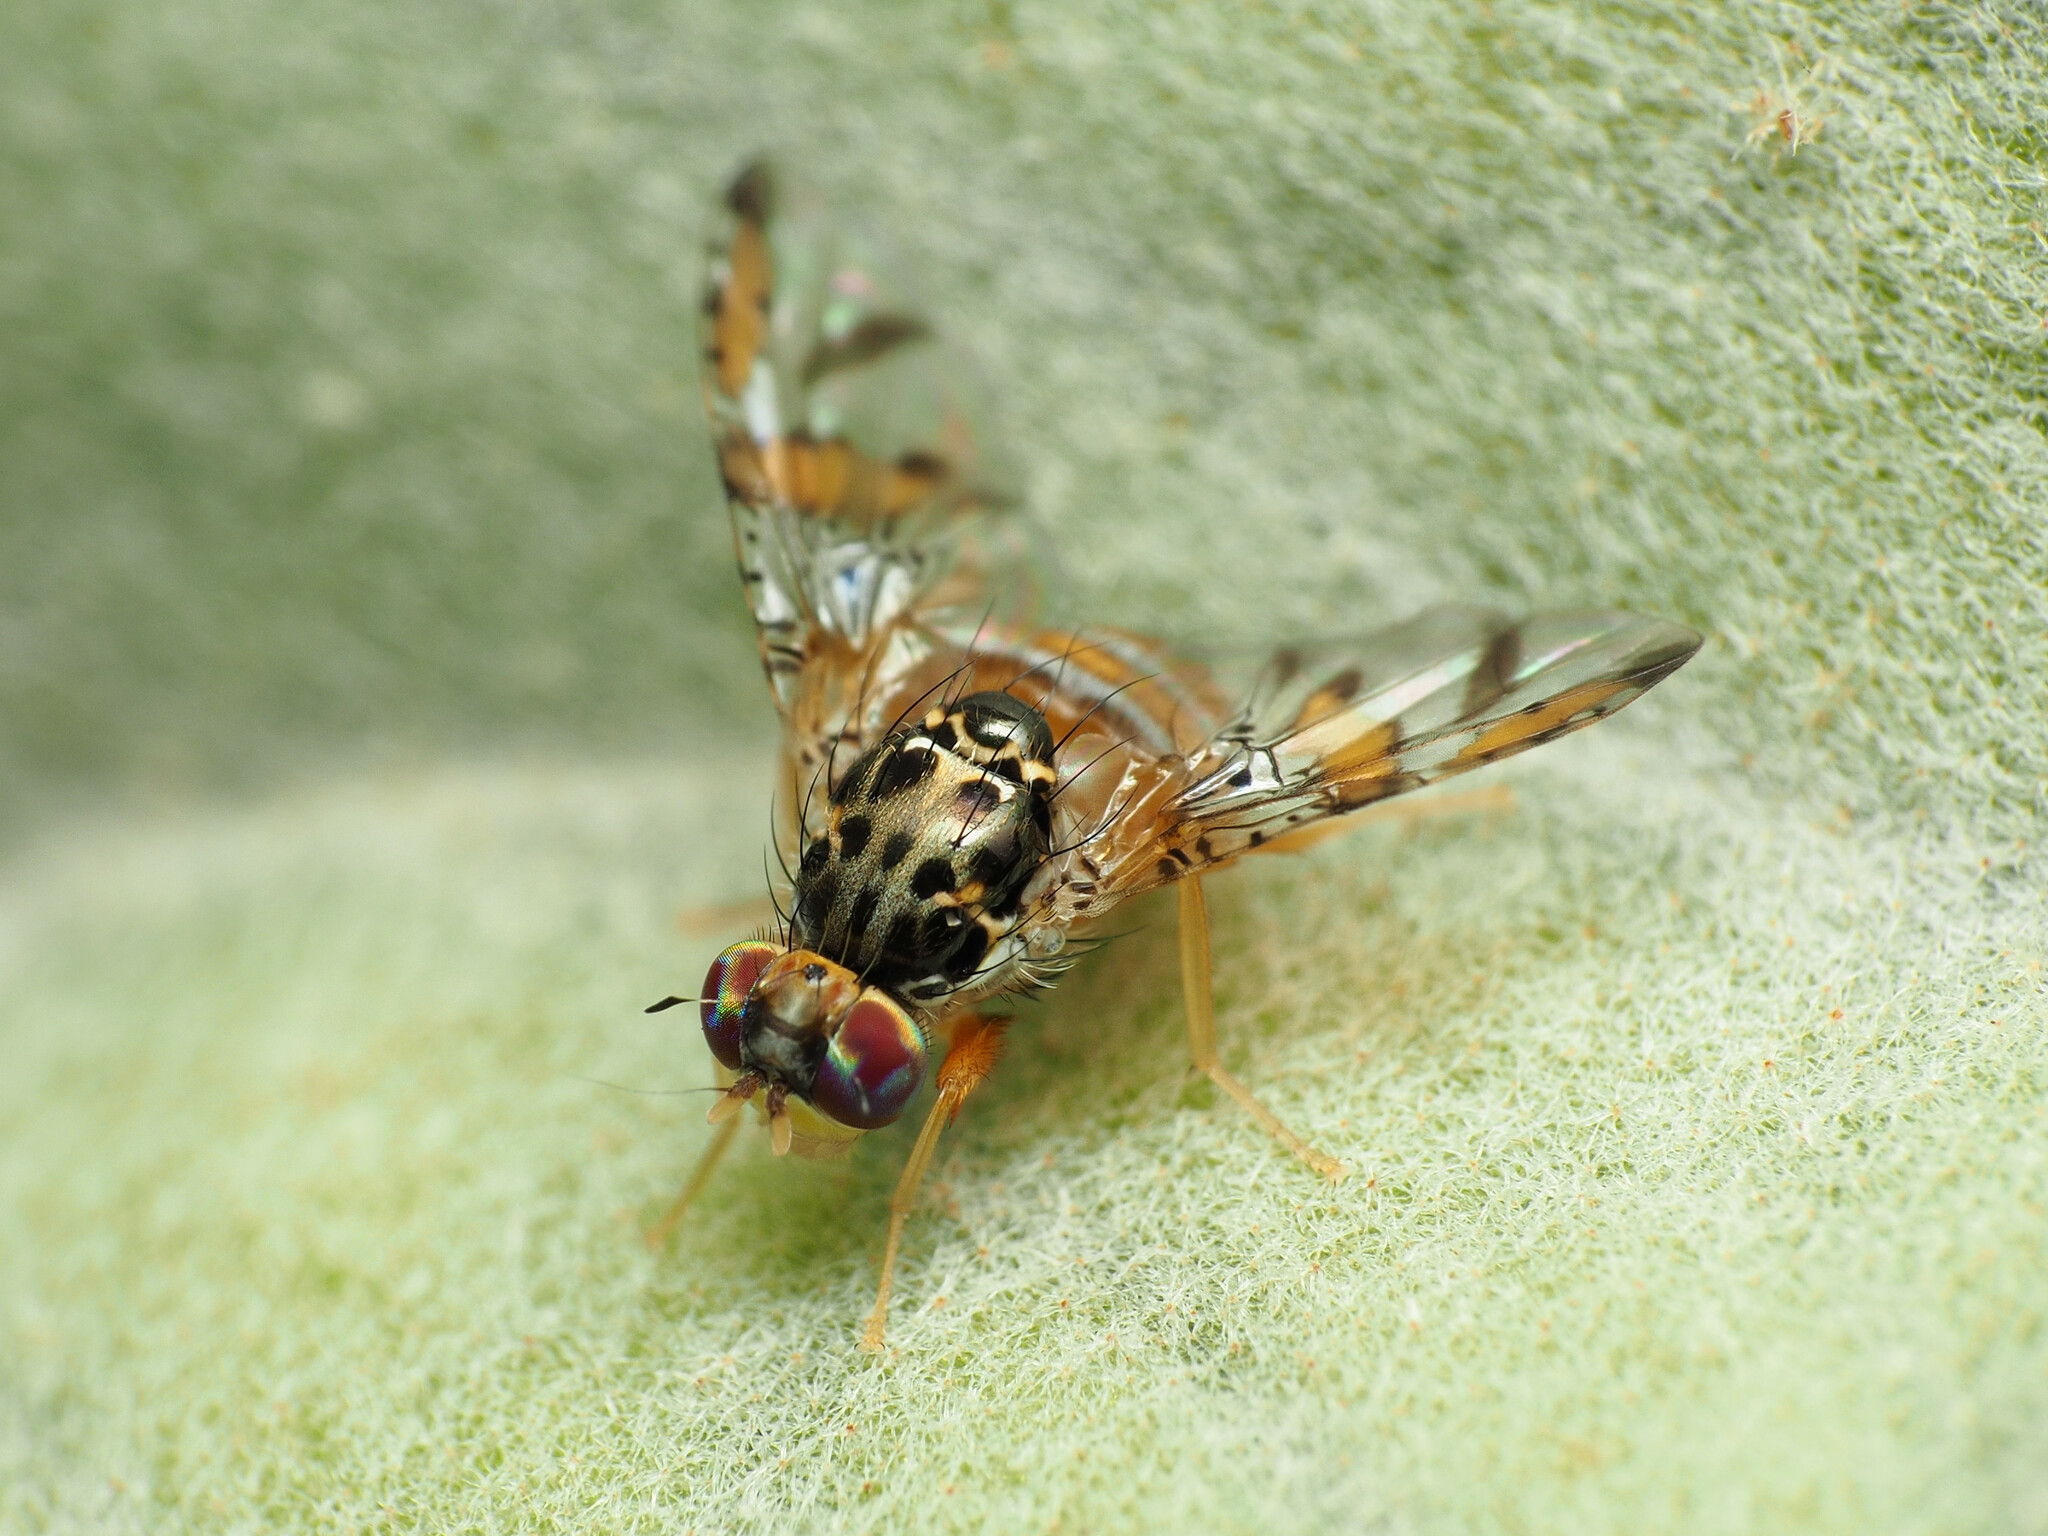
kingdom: Animalia
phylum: Arthropoda
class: Insecta
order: Diptera
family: Tephritidae
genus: Ceratitis
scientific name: Ceratitis capitata
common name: Mediterranean fruit fly
